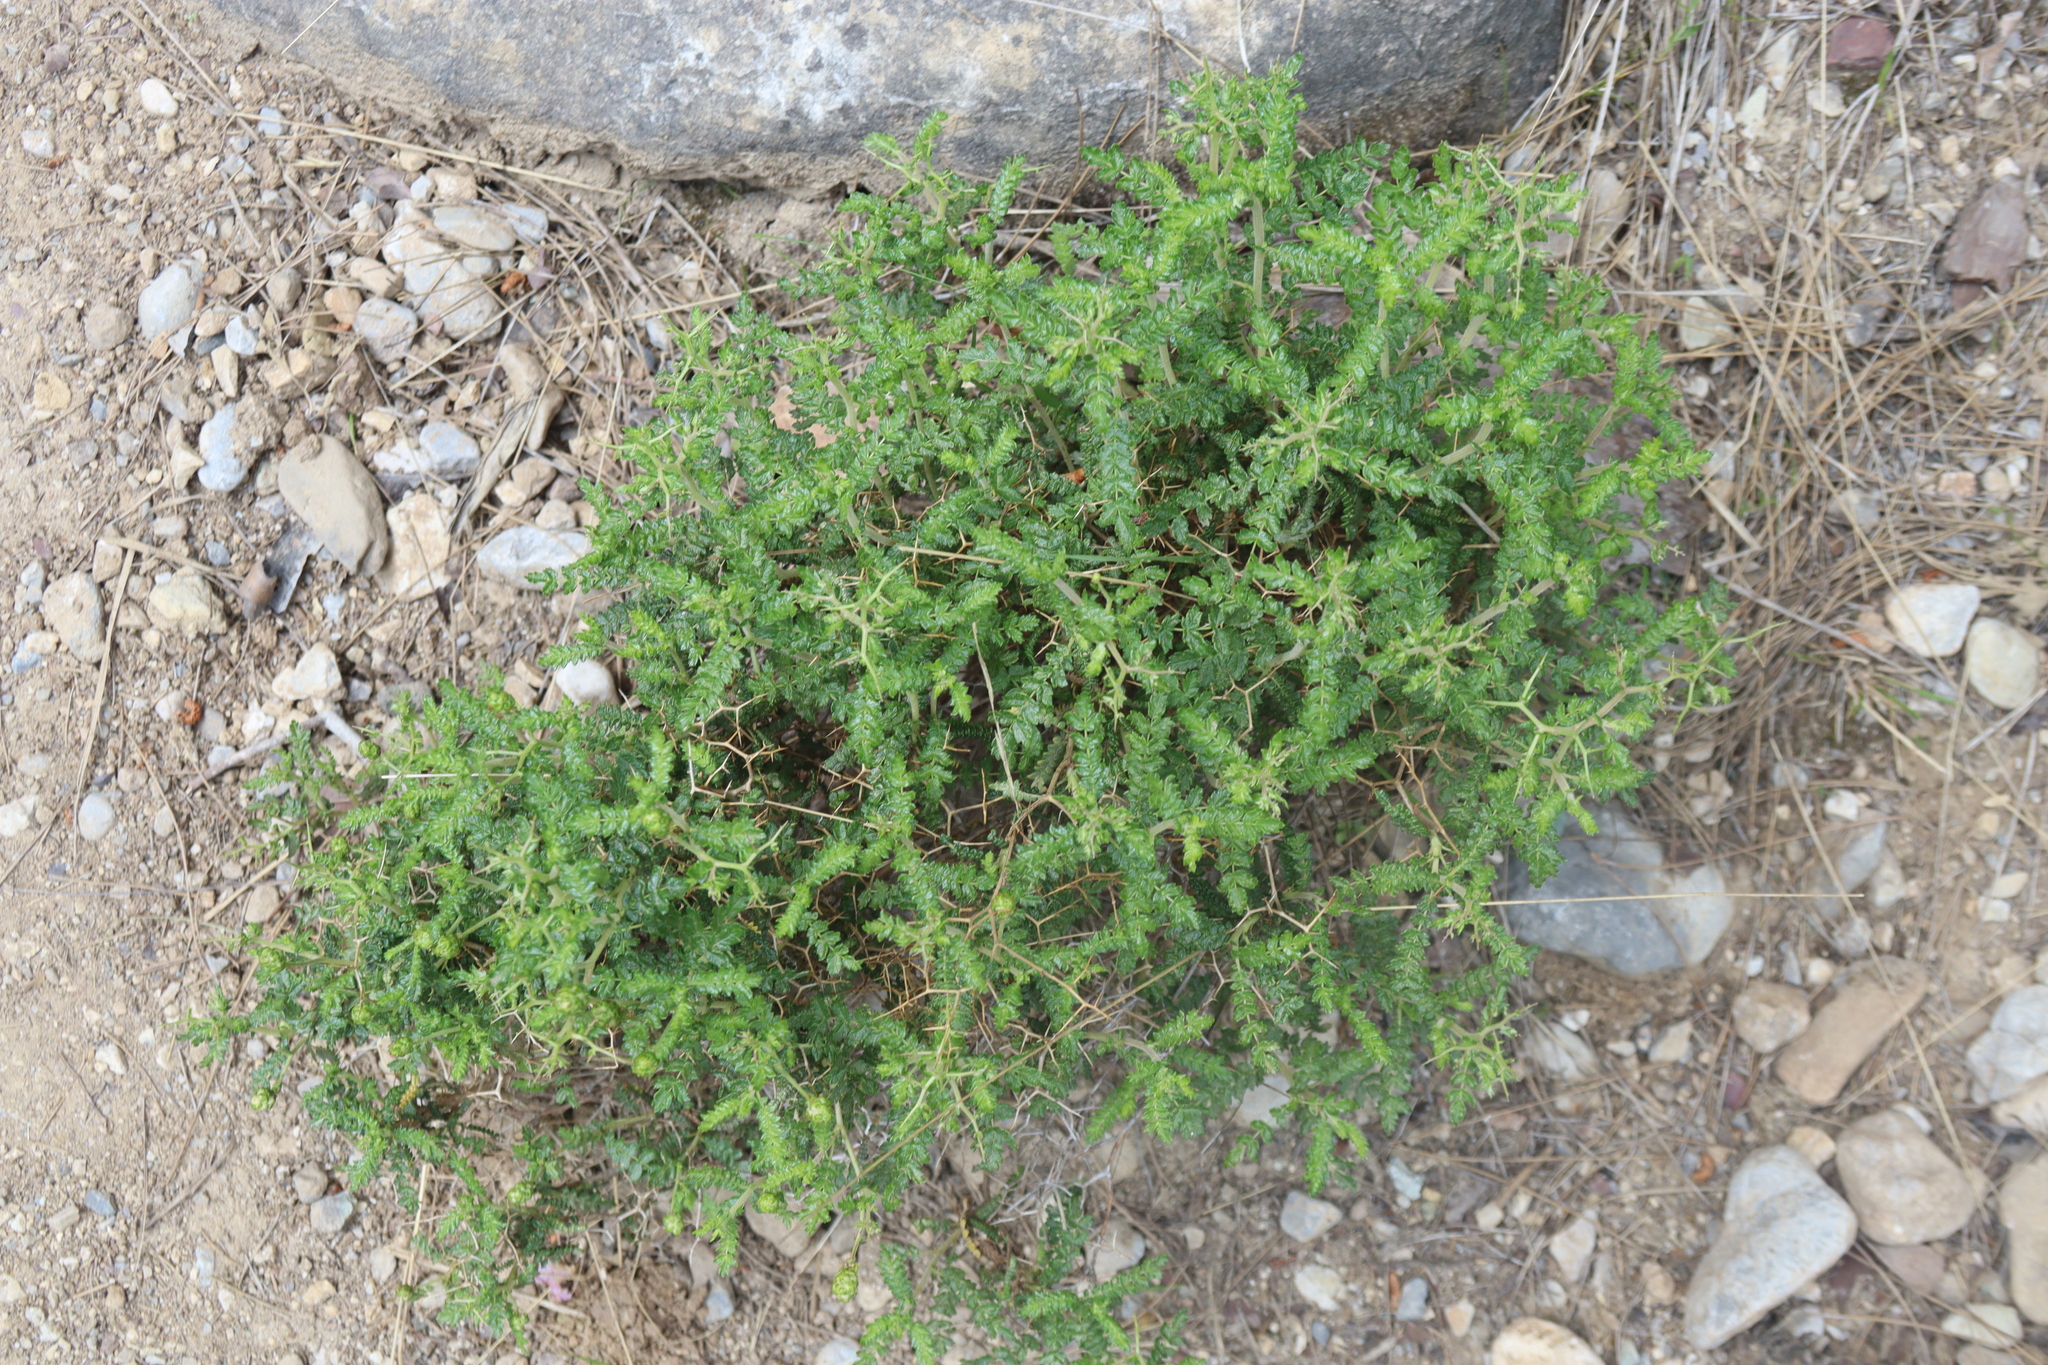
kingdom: Plantae
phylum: Tracheophyta
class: Magnoliopsida
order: Rosales
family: Rosaceae
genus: Sarcopoterium
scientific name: Sarcopoterium spinosum
